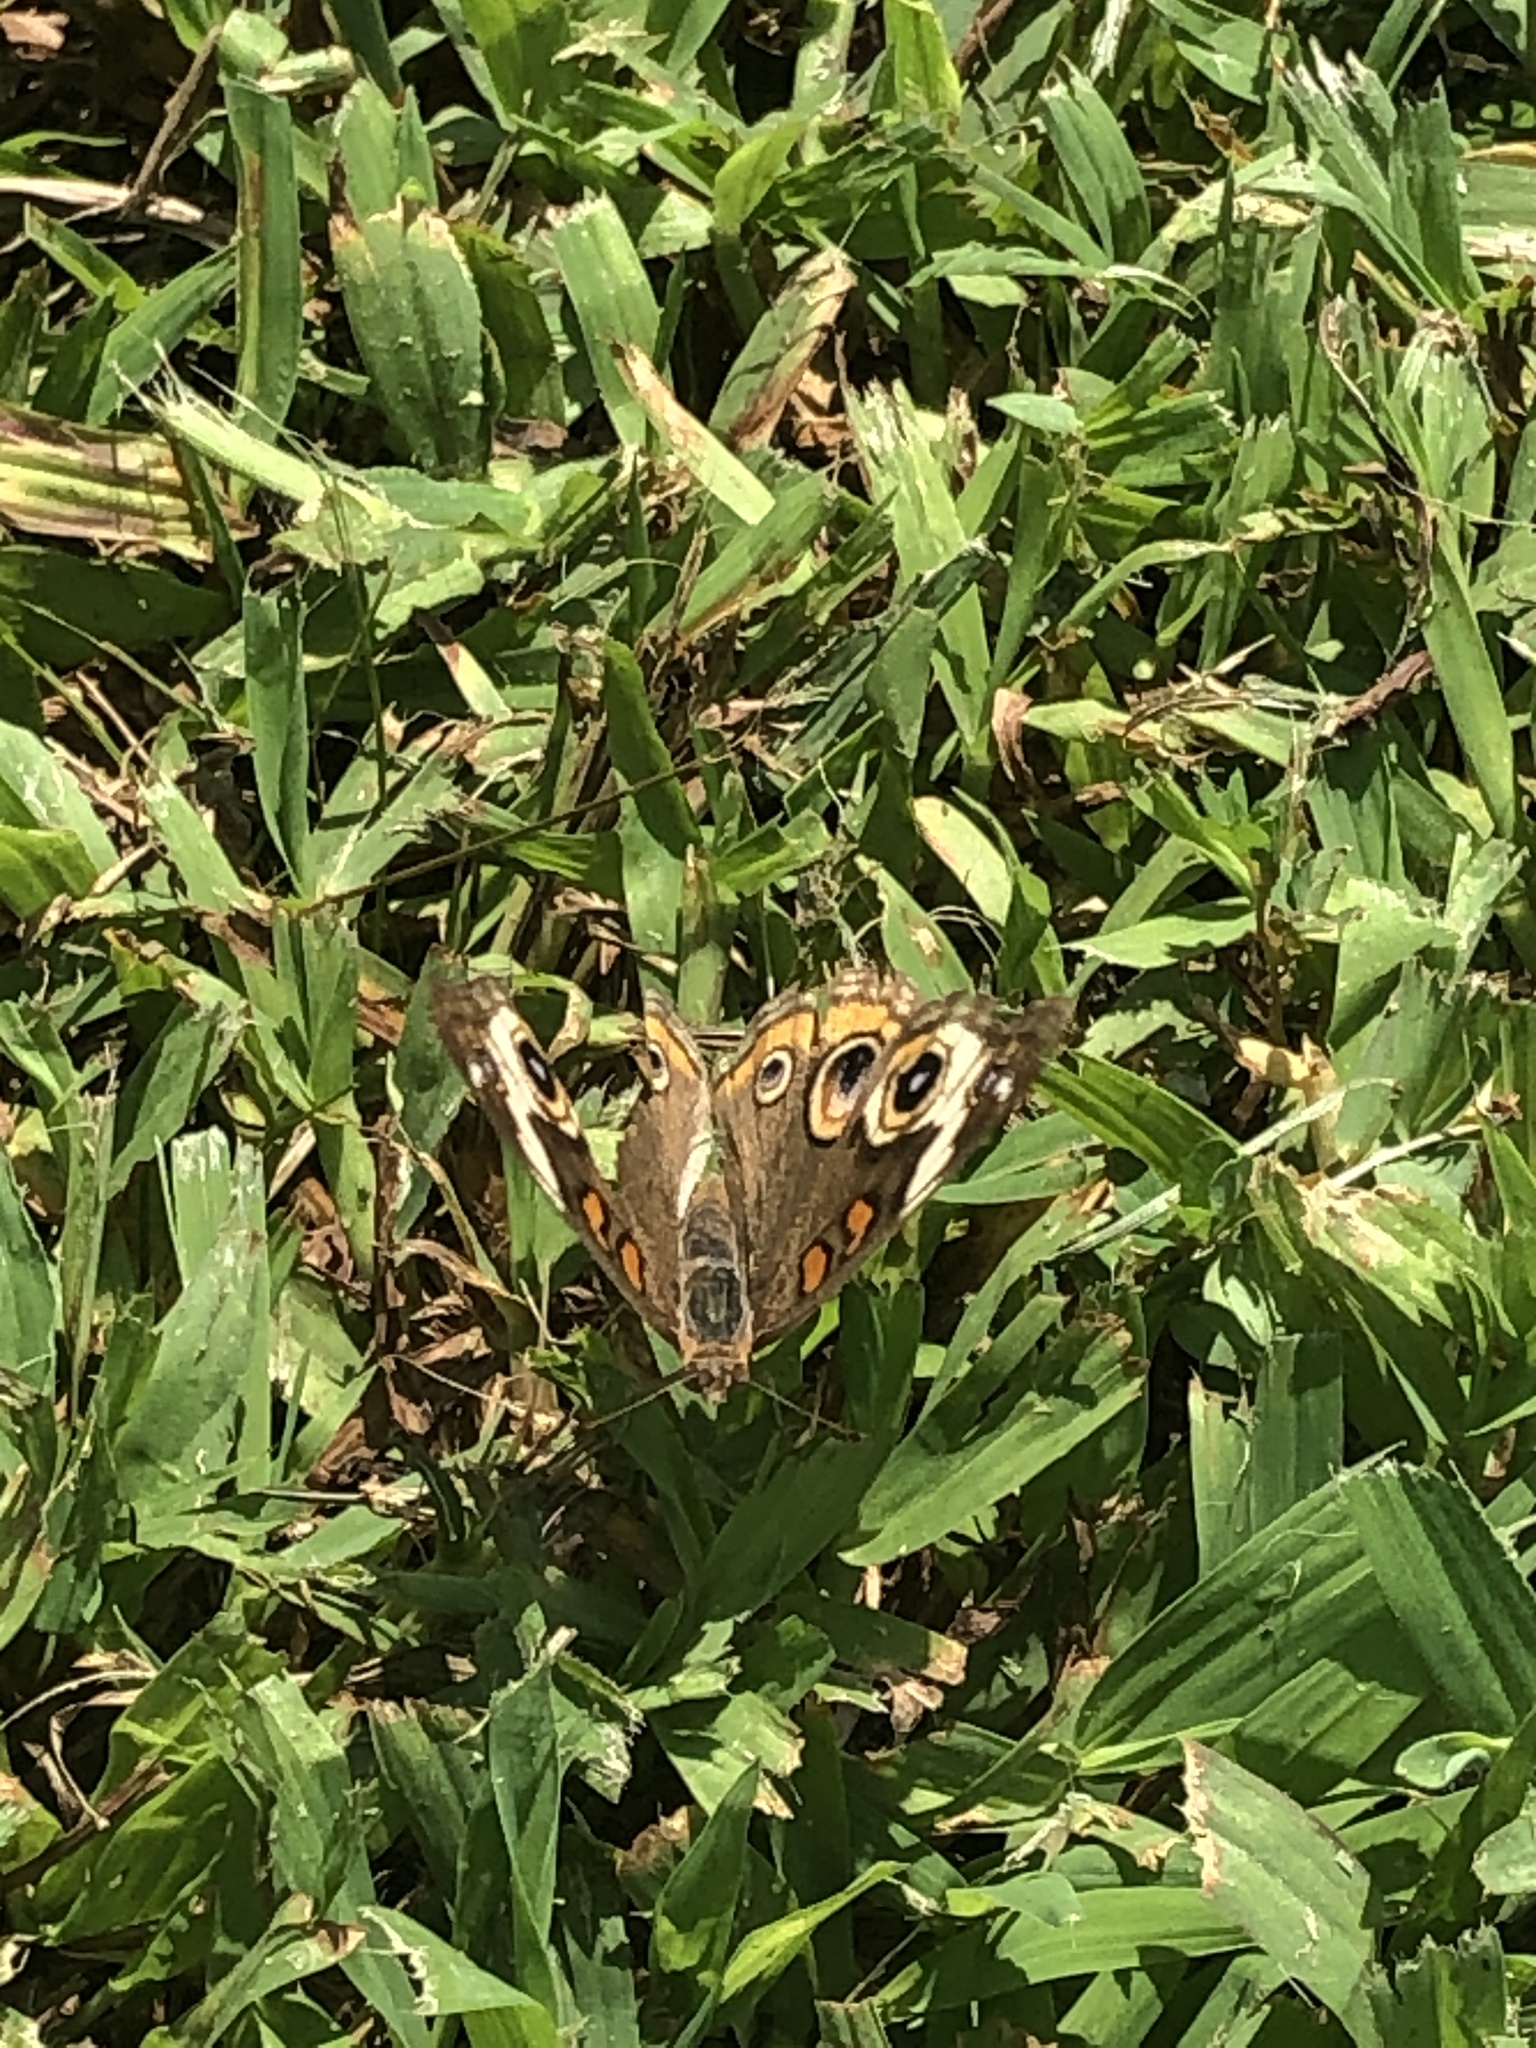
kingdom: Animalia
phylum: Arthropoda
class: Insecta
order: Lepidoptera
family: Nymphalidae
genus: Junonia
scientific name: Junonia coenia
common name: Common buckeye
